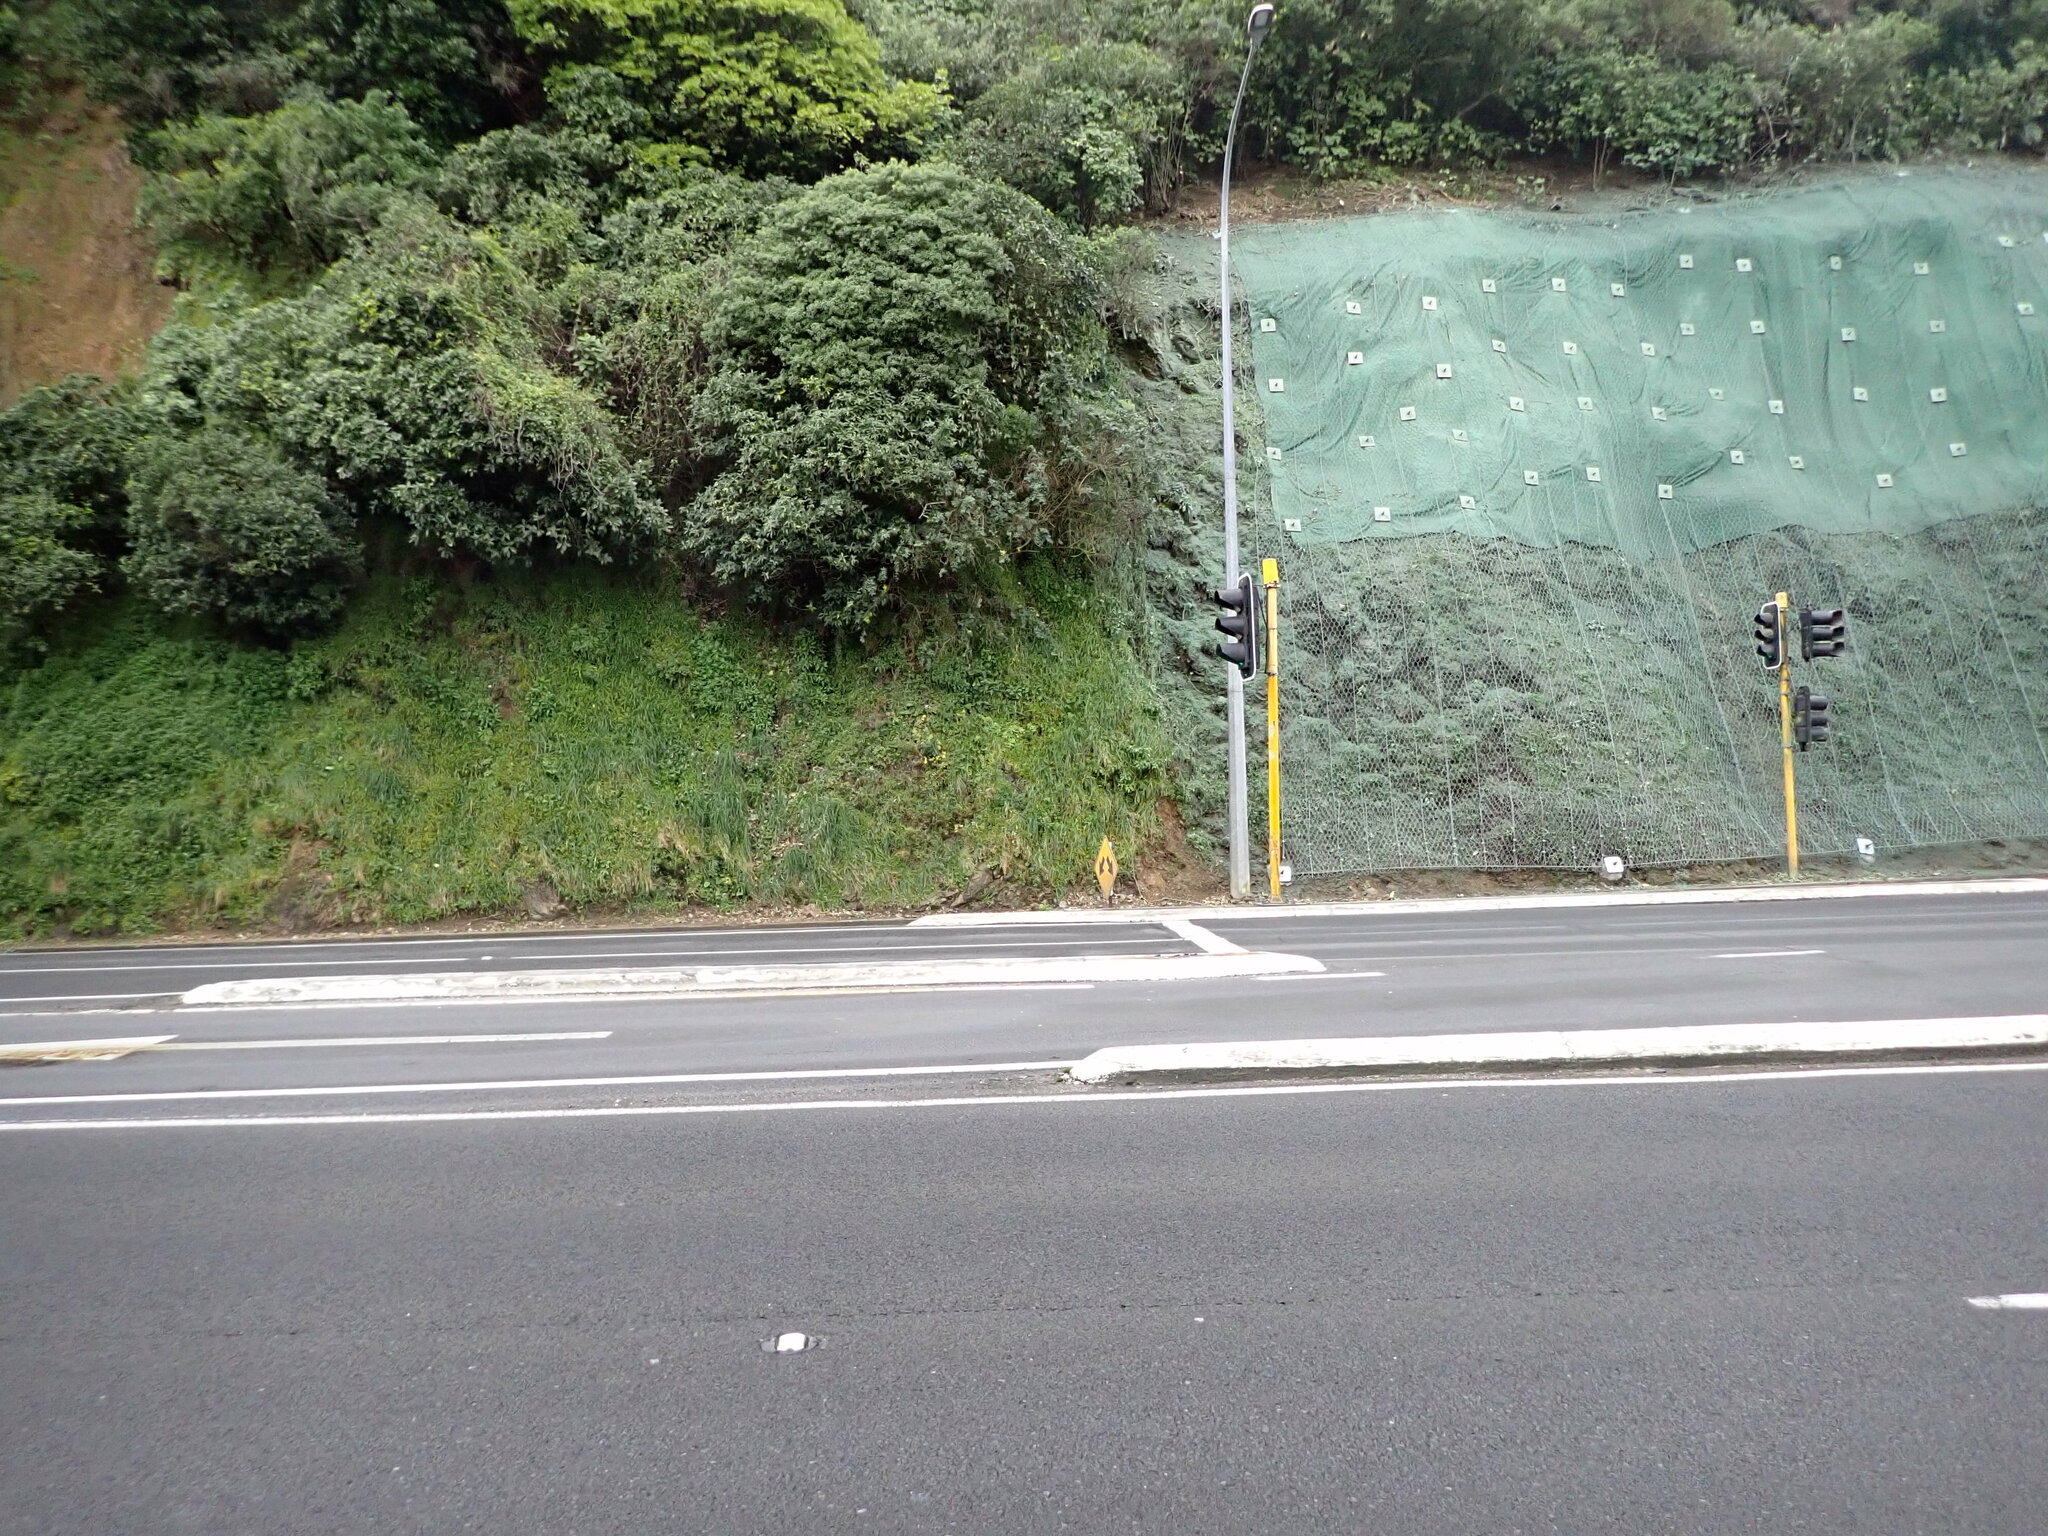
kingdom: Plantae
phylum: Tracheophyta
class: Magnoliopsida
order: Saxifragales
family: Crassulaceae
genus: Aichryson
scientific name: Aichryson laxum
